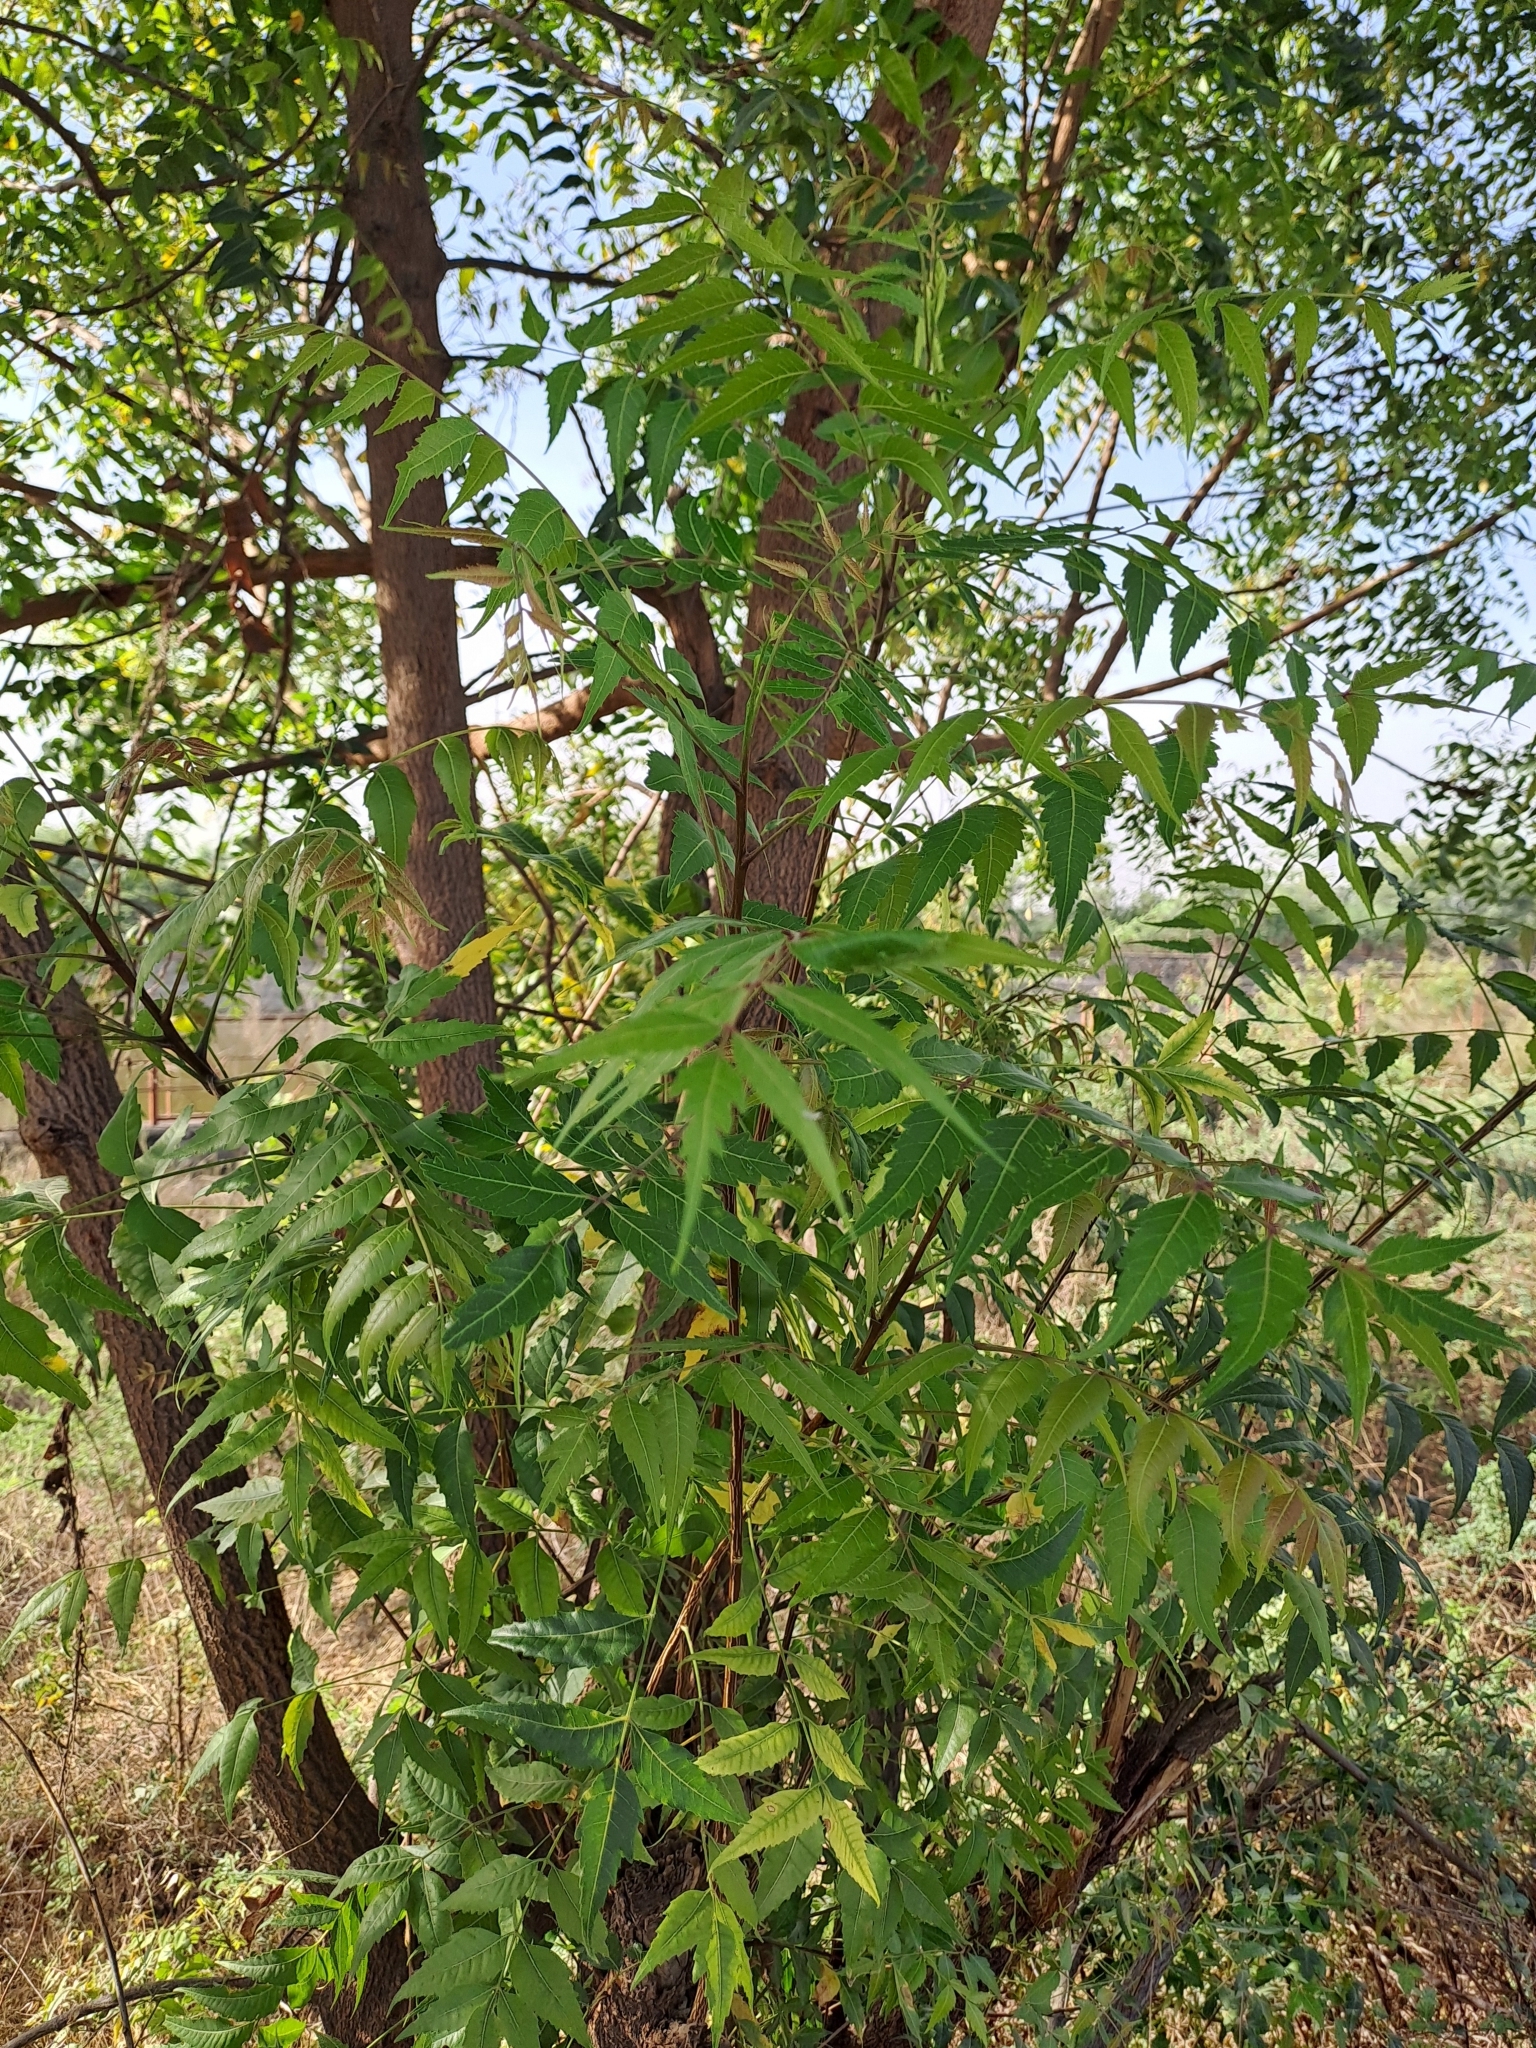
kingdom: Plantae
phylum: Tracheophyta
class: Magnoliopsida
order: Sapindales
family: Meliaceae
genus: Azadirachta
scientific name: Azadirachta indica
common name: Neem
